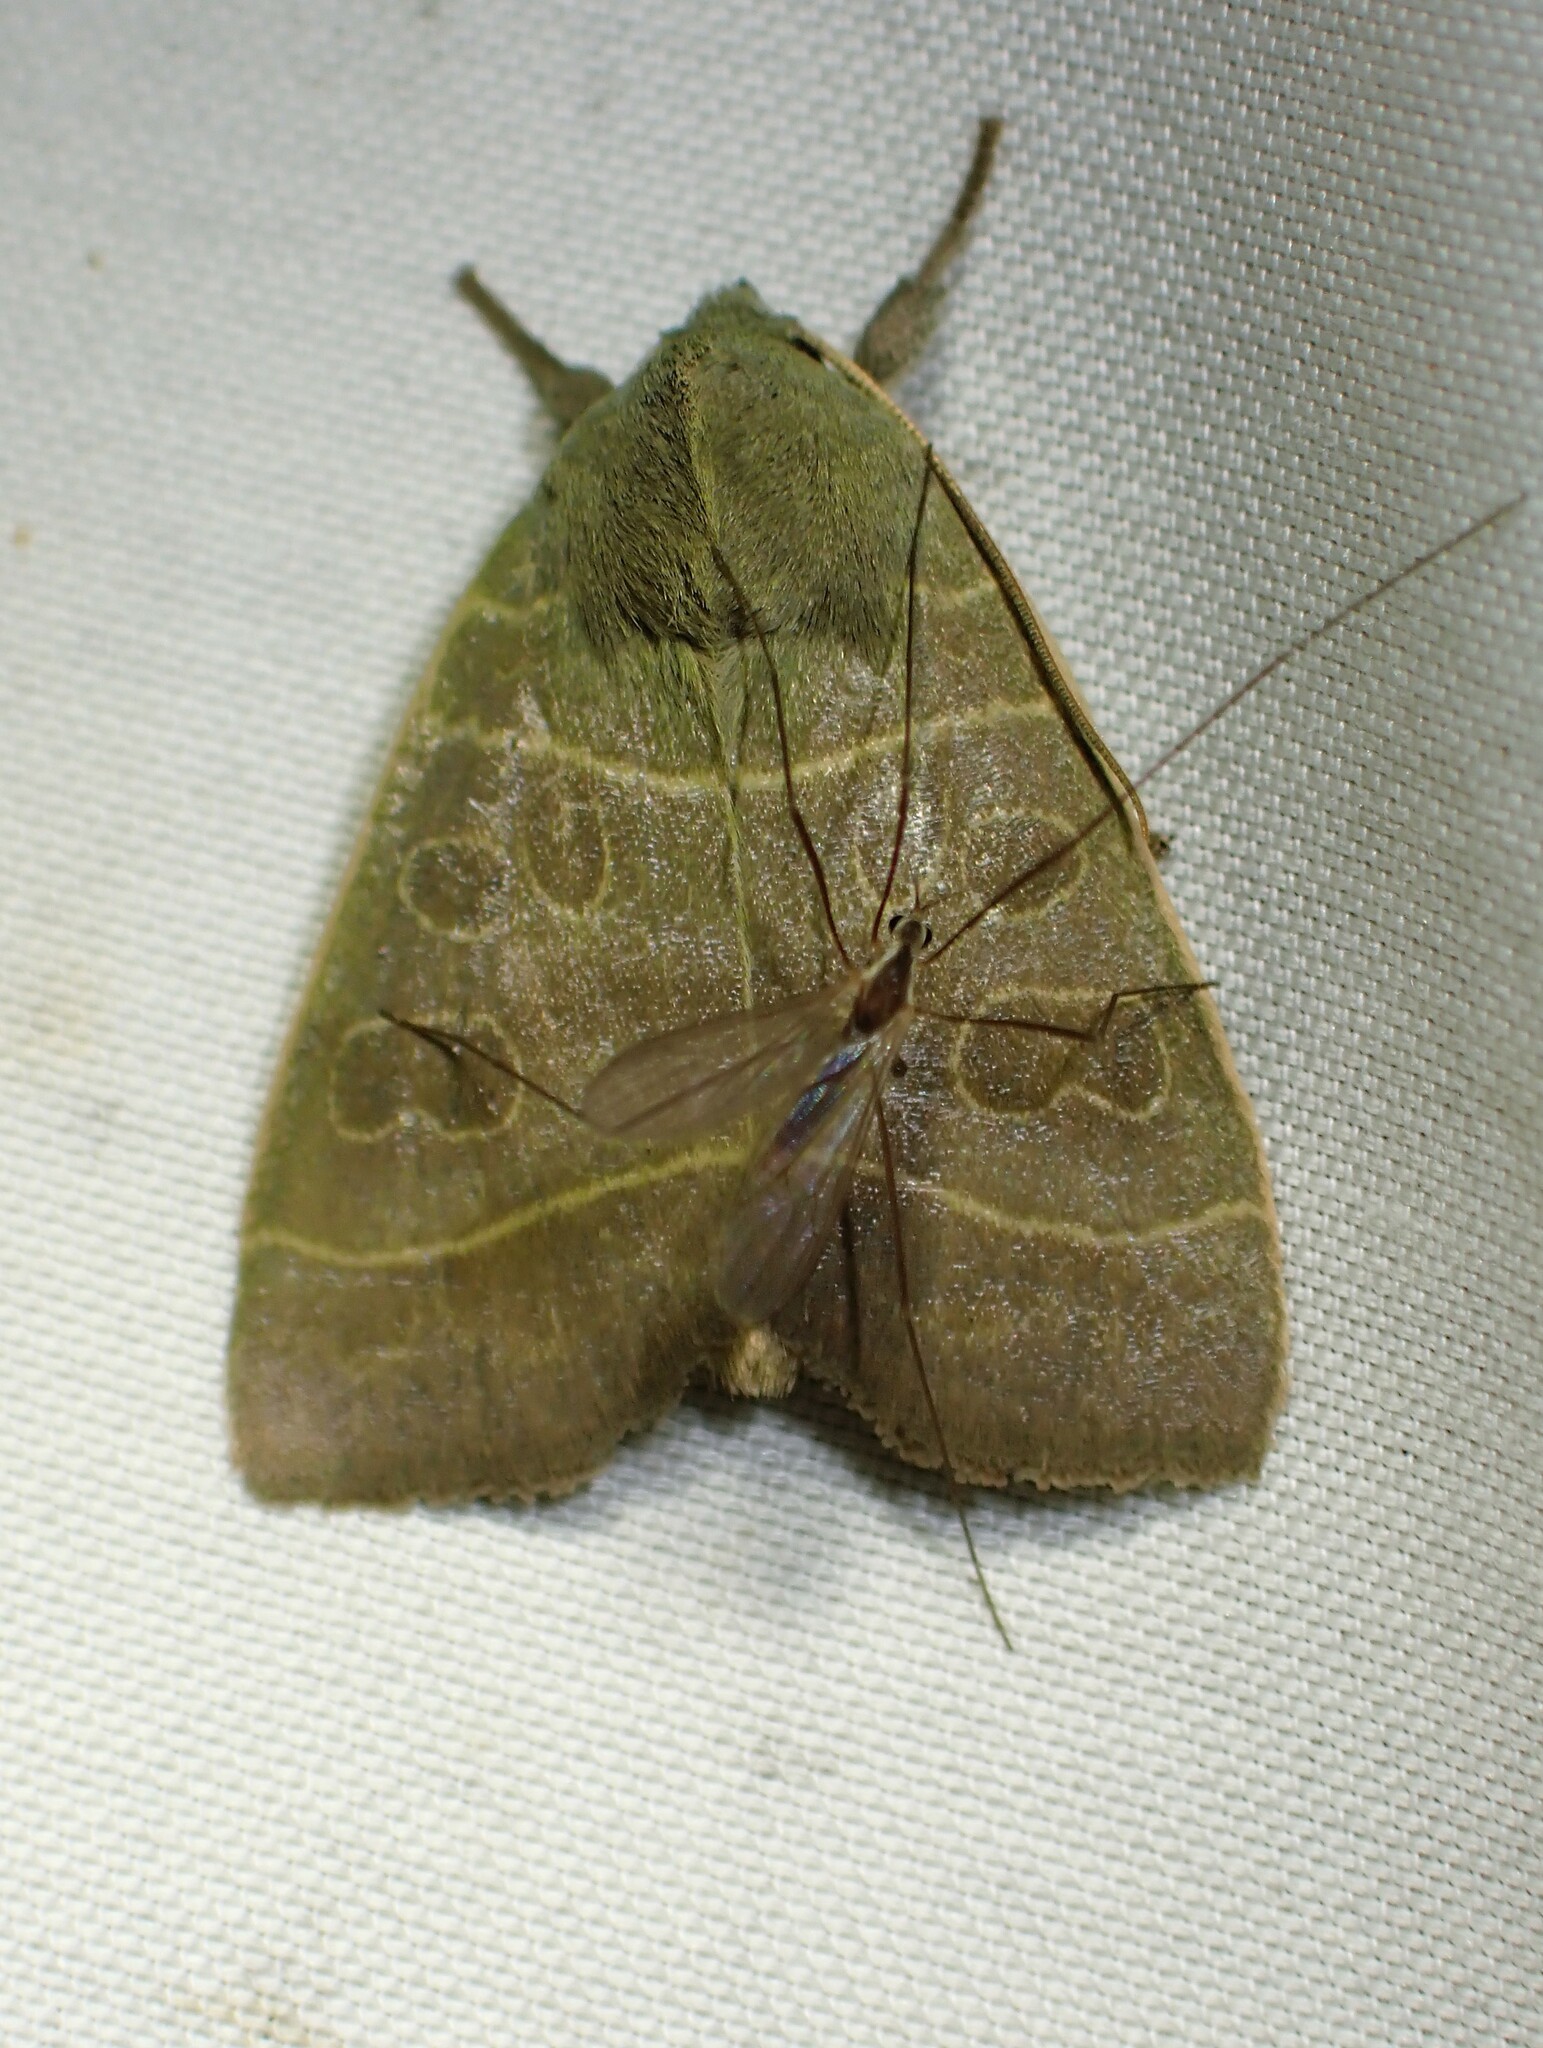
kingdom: Animalia
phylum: Arthropoda
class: Insecta
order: Lepidoptera
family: Noctuidae
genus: Ipimorpha
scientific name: Ipimorpha pleonectusa
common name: Even-lined sallow
